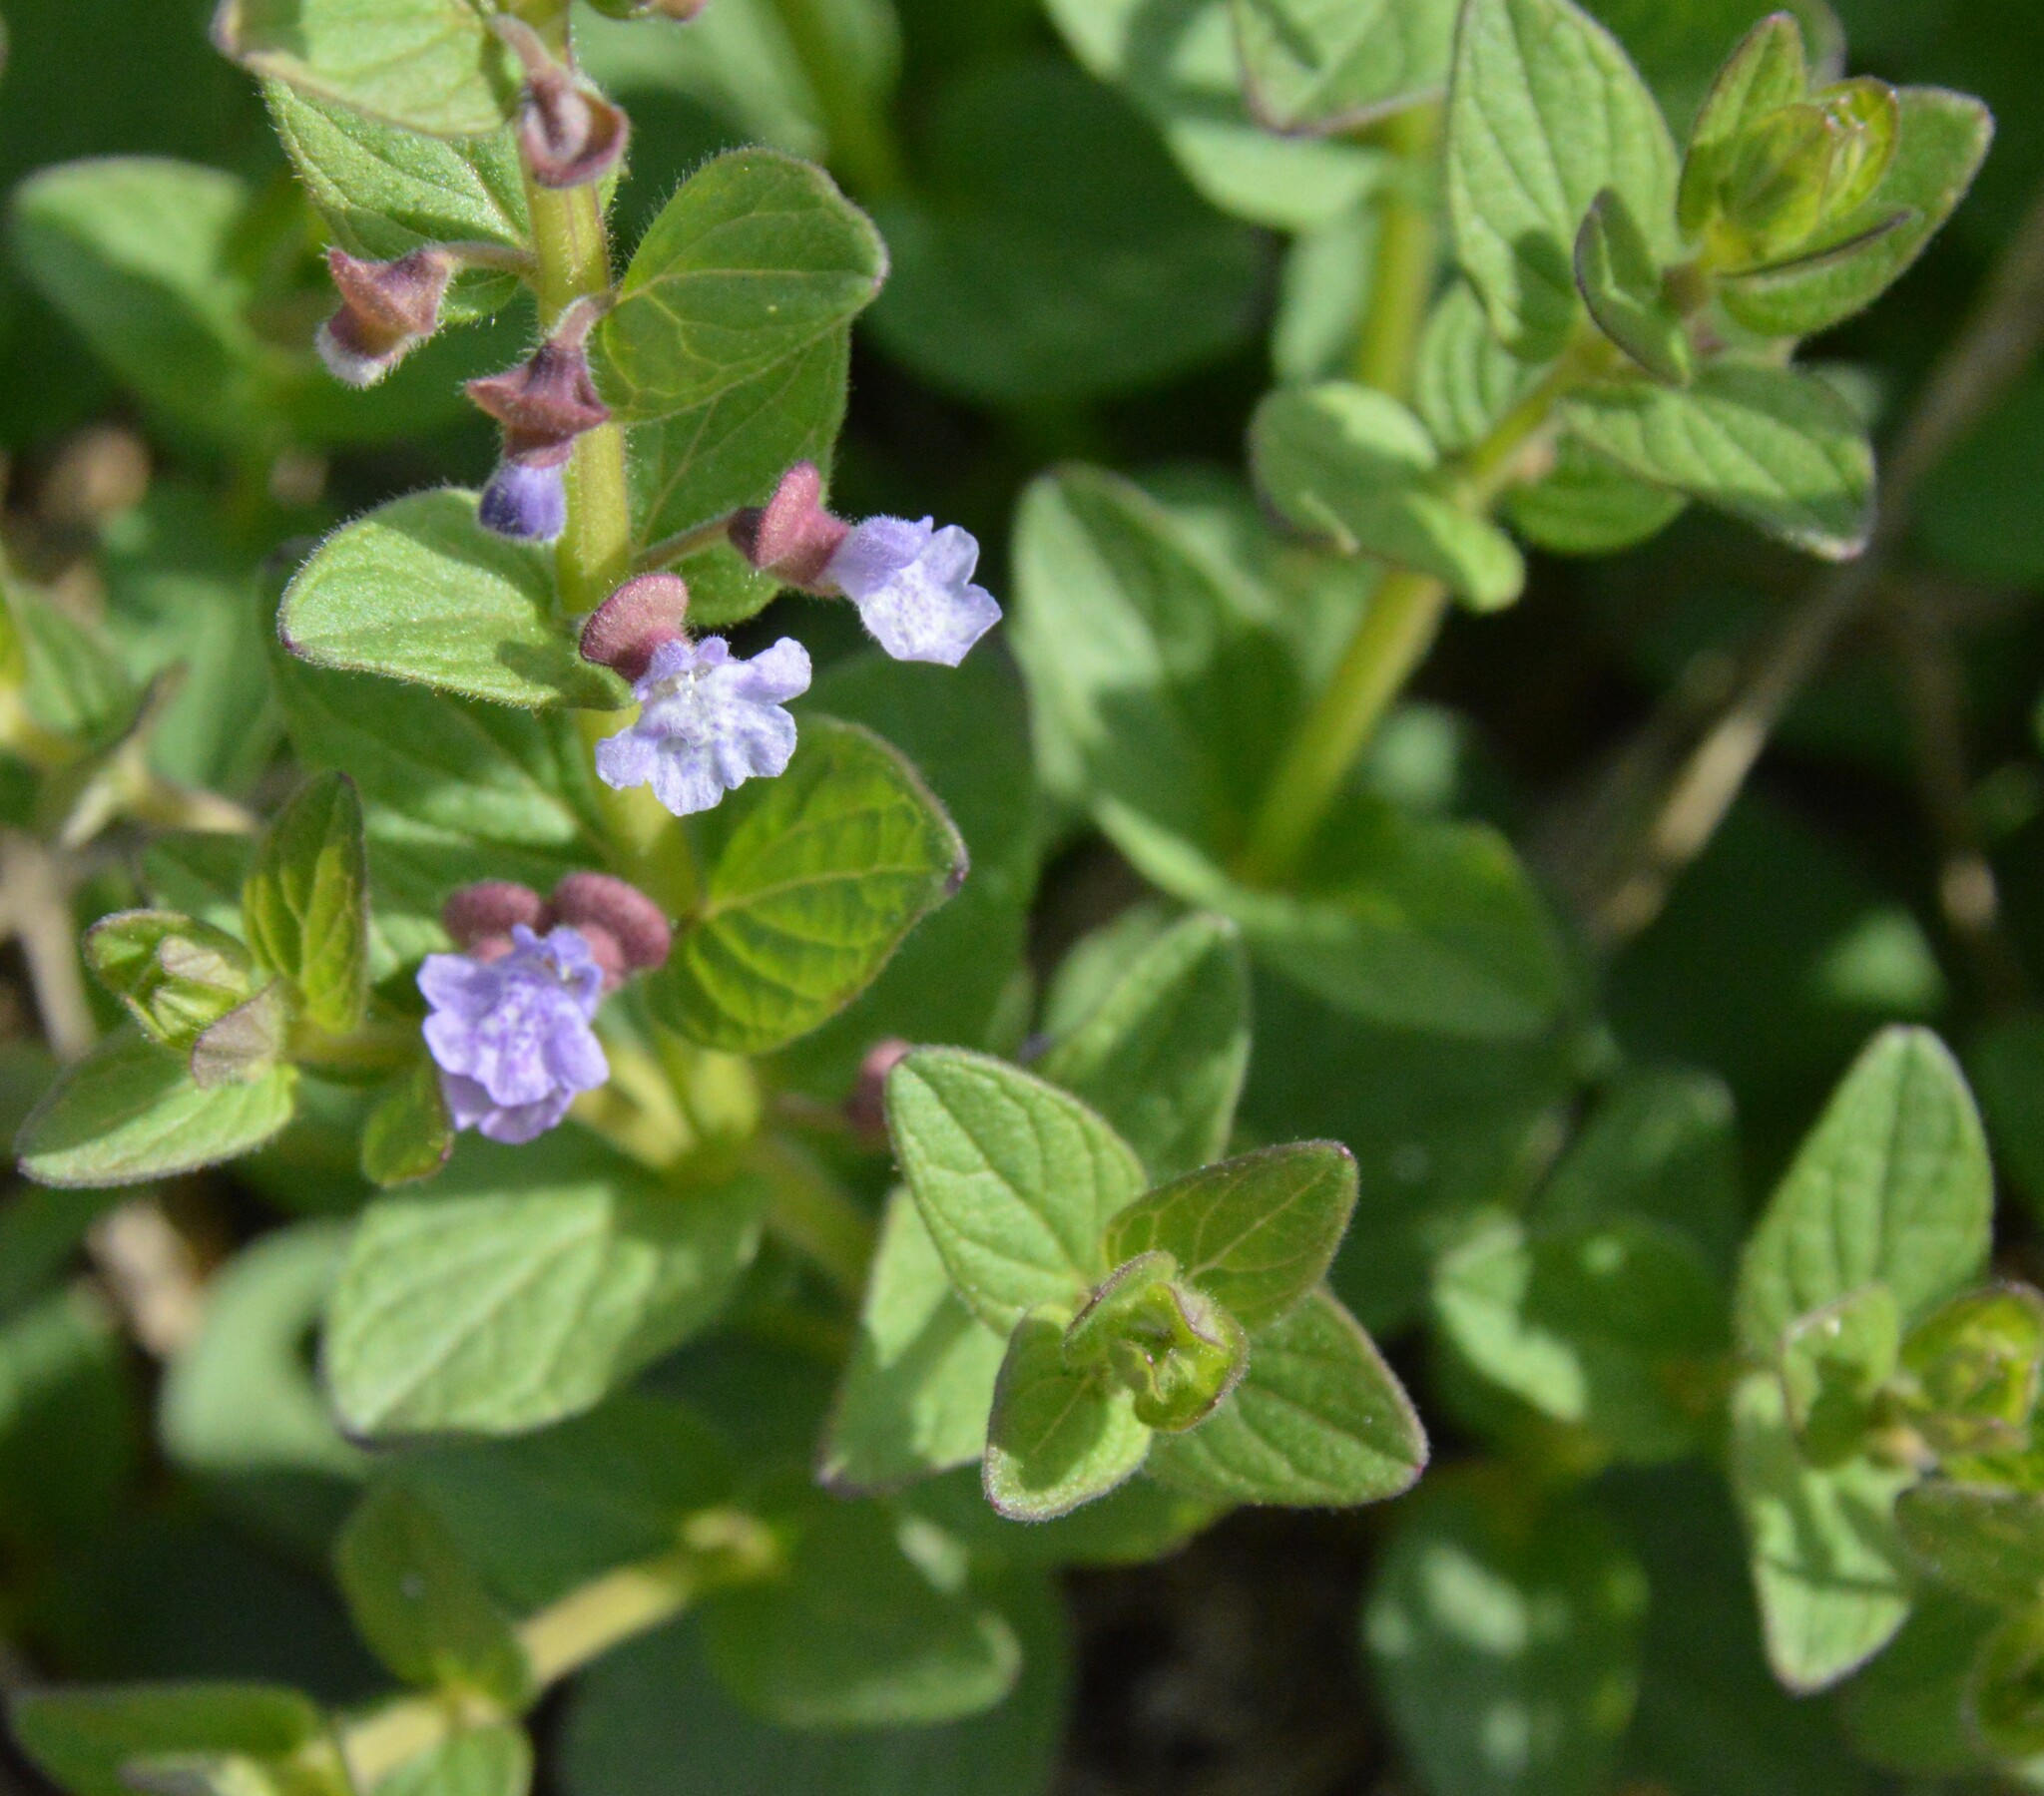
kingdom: Plantae
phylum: Tracheophyta
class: Magnoliopsida
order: Lamiales
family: Lamiaceae
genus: Scutellaria
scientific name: Scutellaria parvula
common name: Little scullcap
